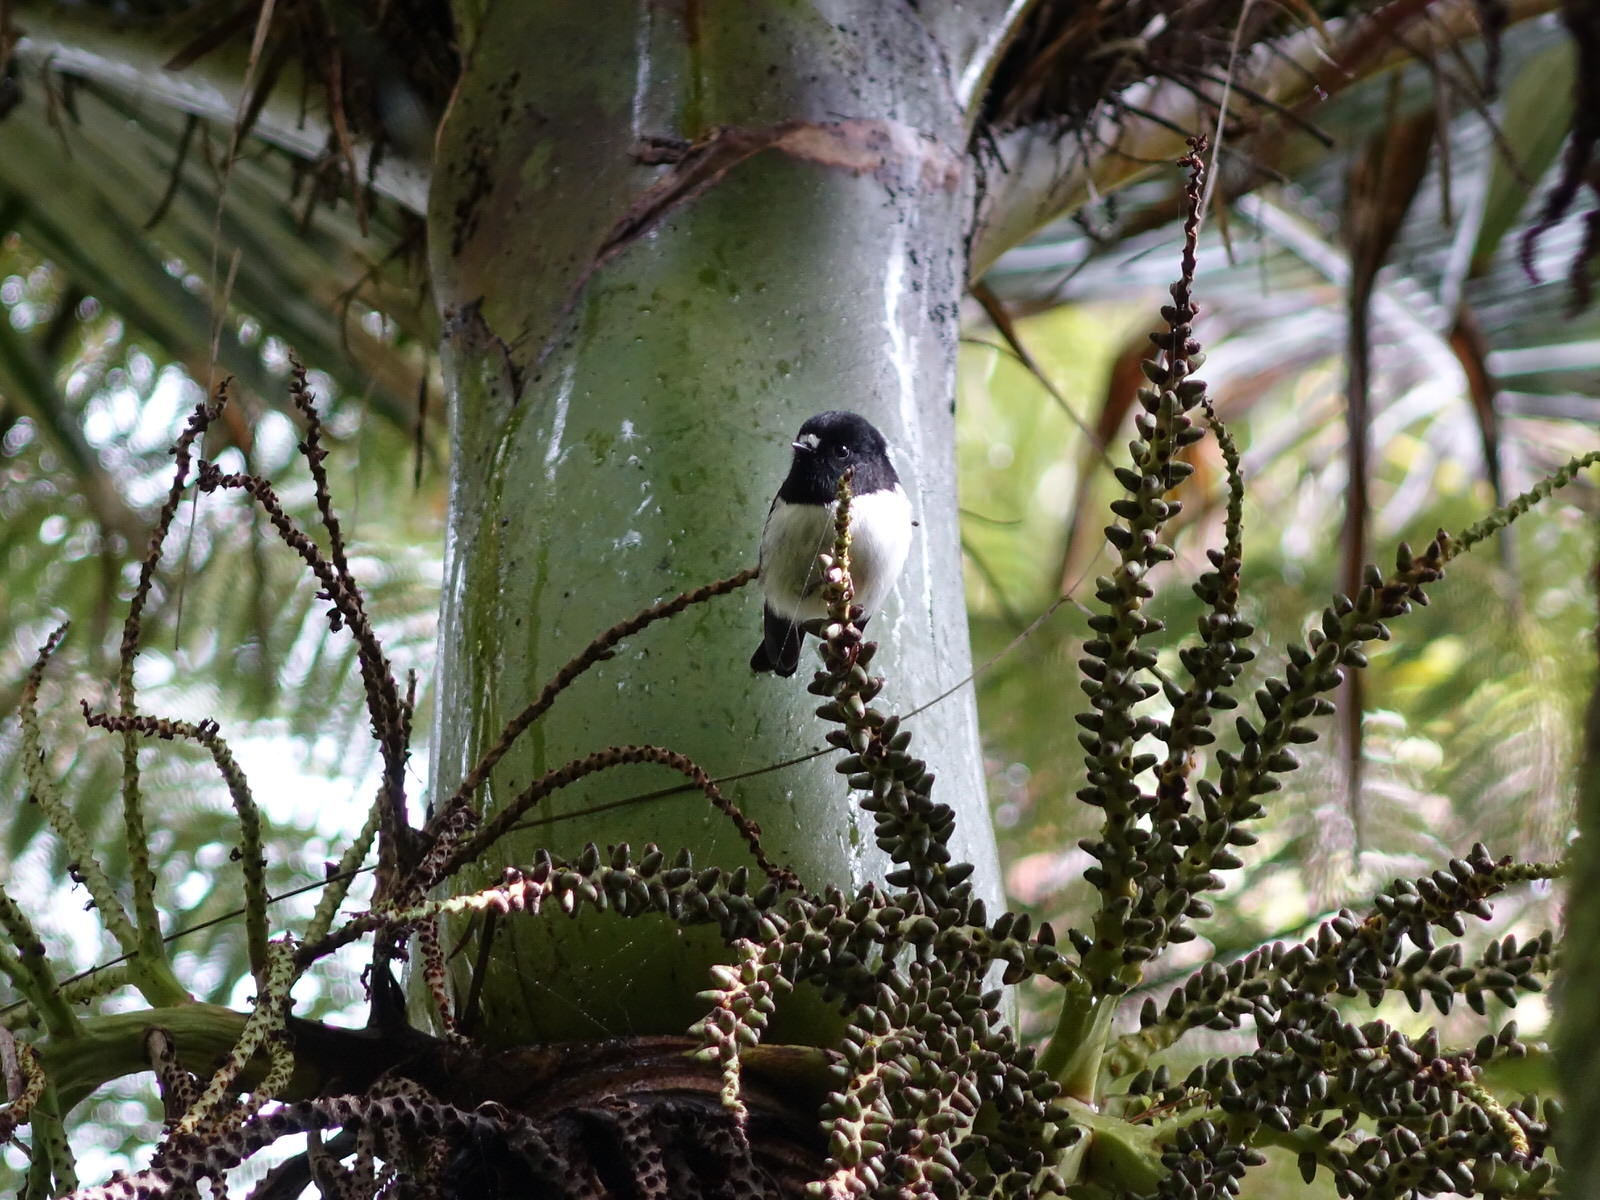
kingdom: Animalia
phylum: Chordata
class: Aves
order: Passeriformes
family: Petroicidae
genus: Petroica
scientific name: Petroica macrocephala
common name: Tomtit
